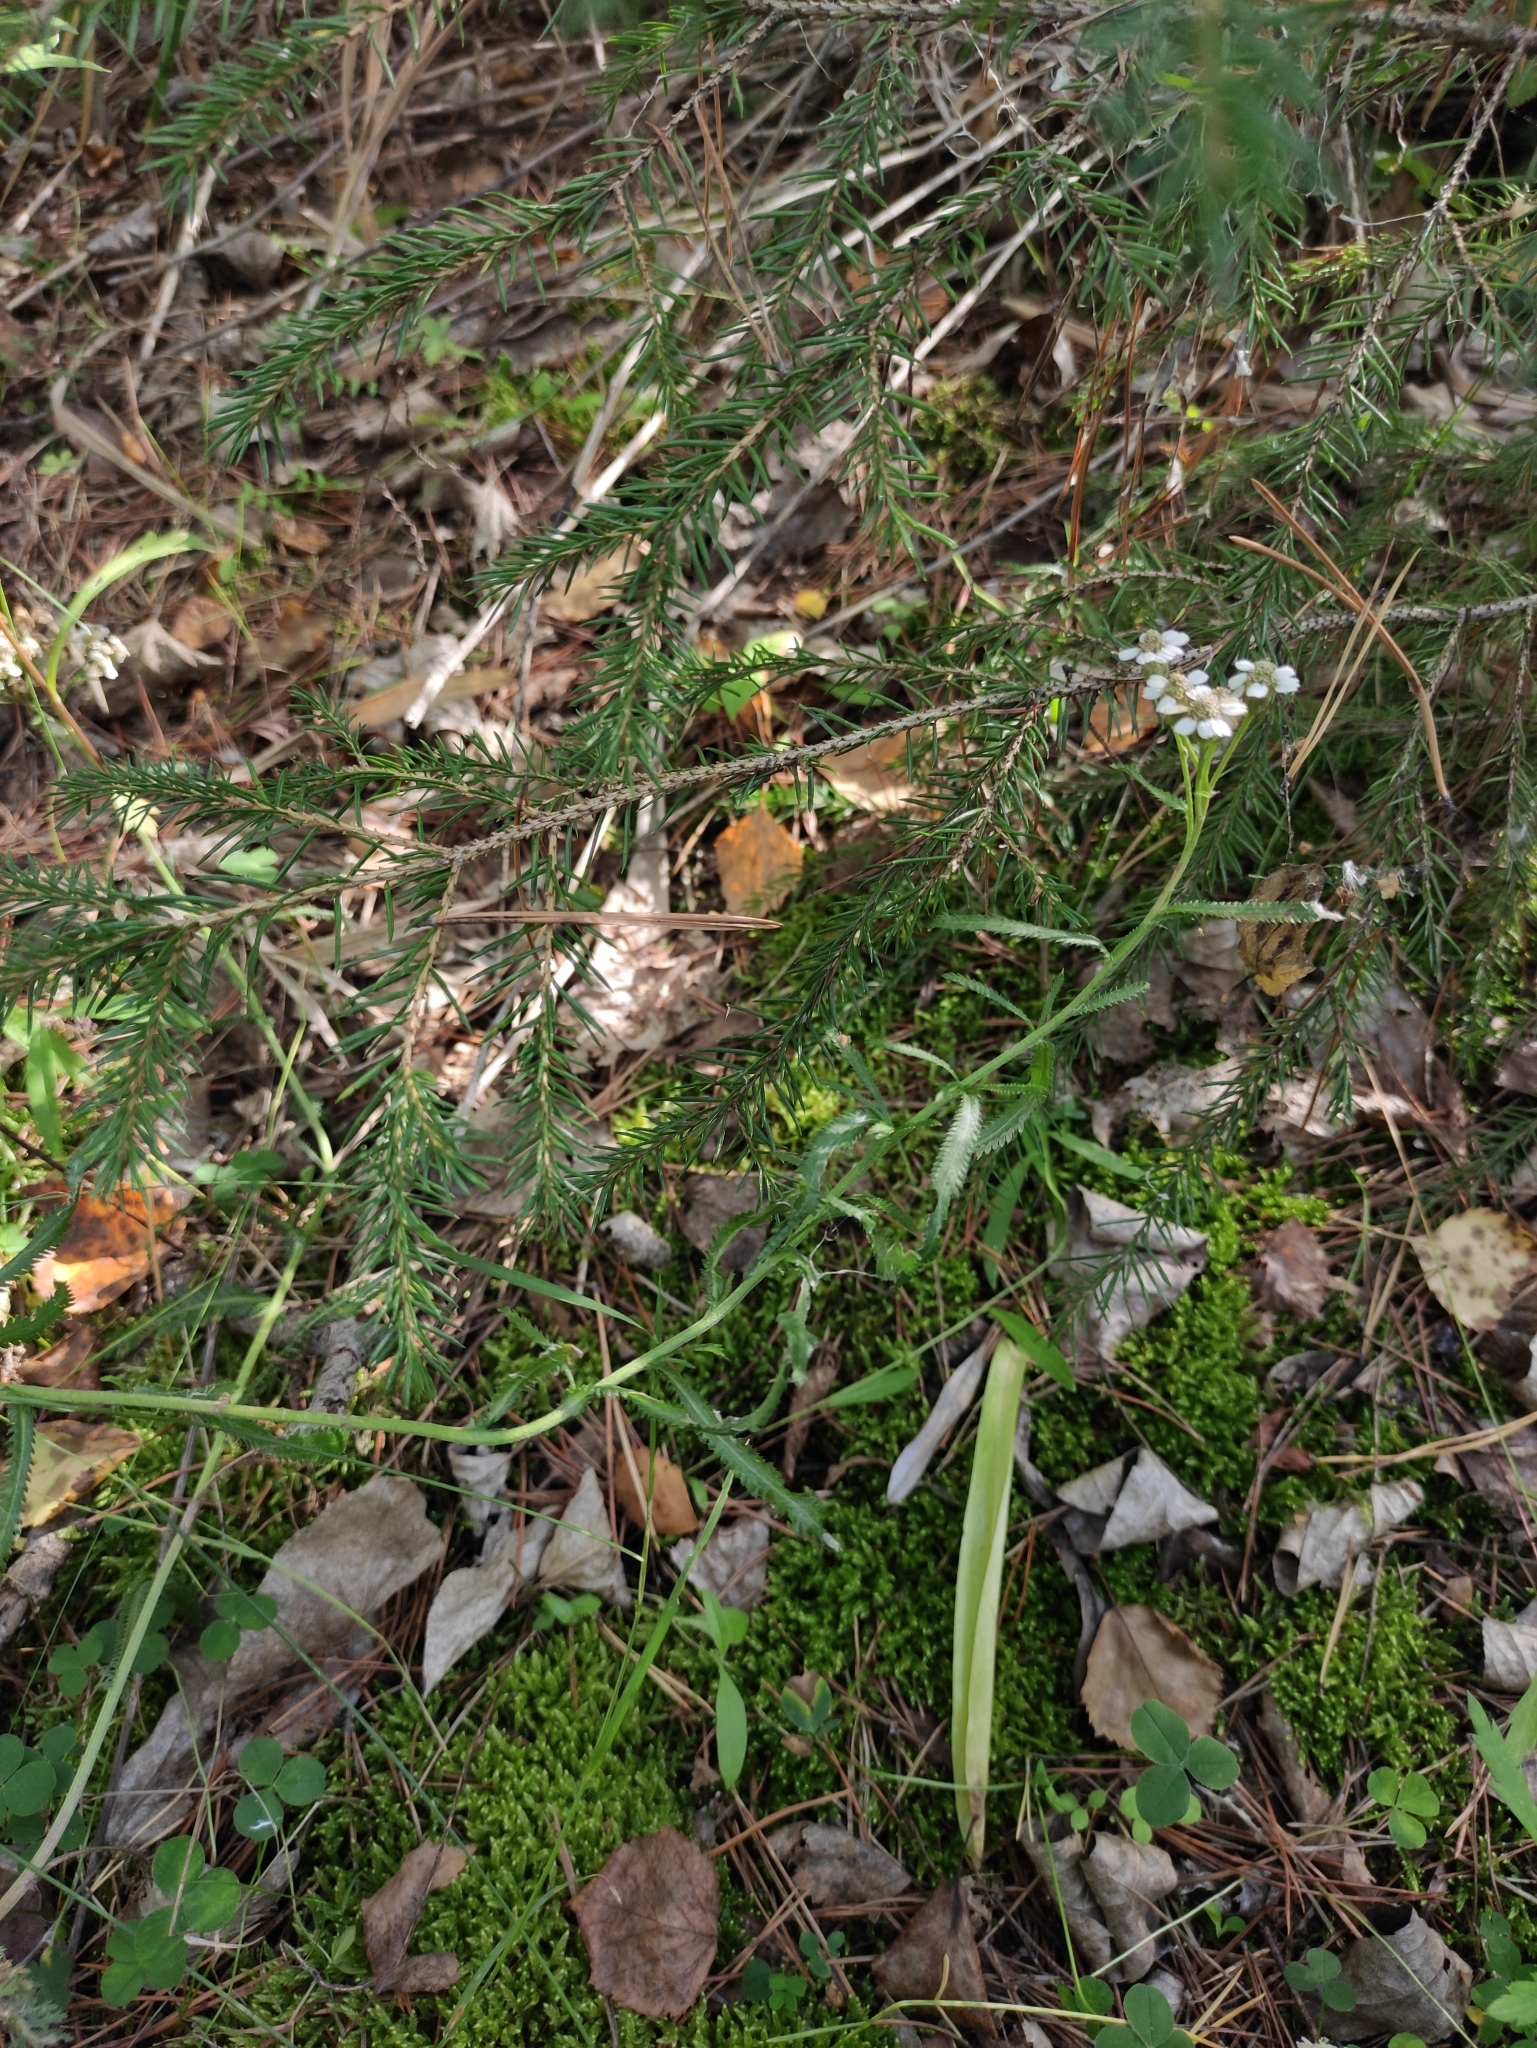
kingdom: Plantae
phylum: Tracheophyta
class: Magnoliopsida
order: Asterales
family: Asteraceae
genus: Achillea
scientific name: Achillea alpina
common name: Siberian yarrow
